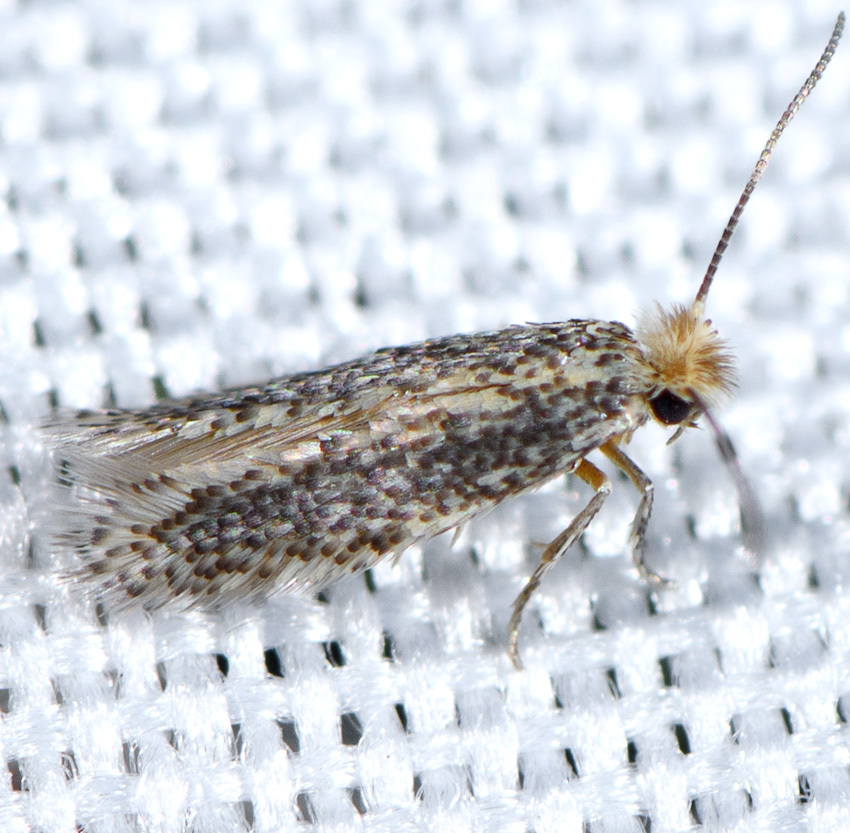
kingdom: Animalia
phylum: Arthropoda
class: Insecta
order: Lepidoptera
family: Nepticulidae
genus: Acalyptris
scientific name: Acalyptris lotella
